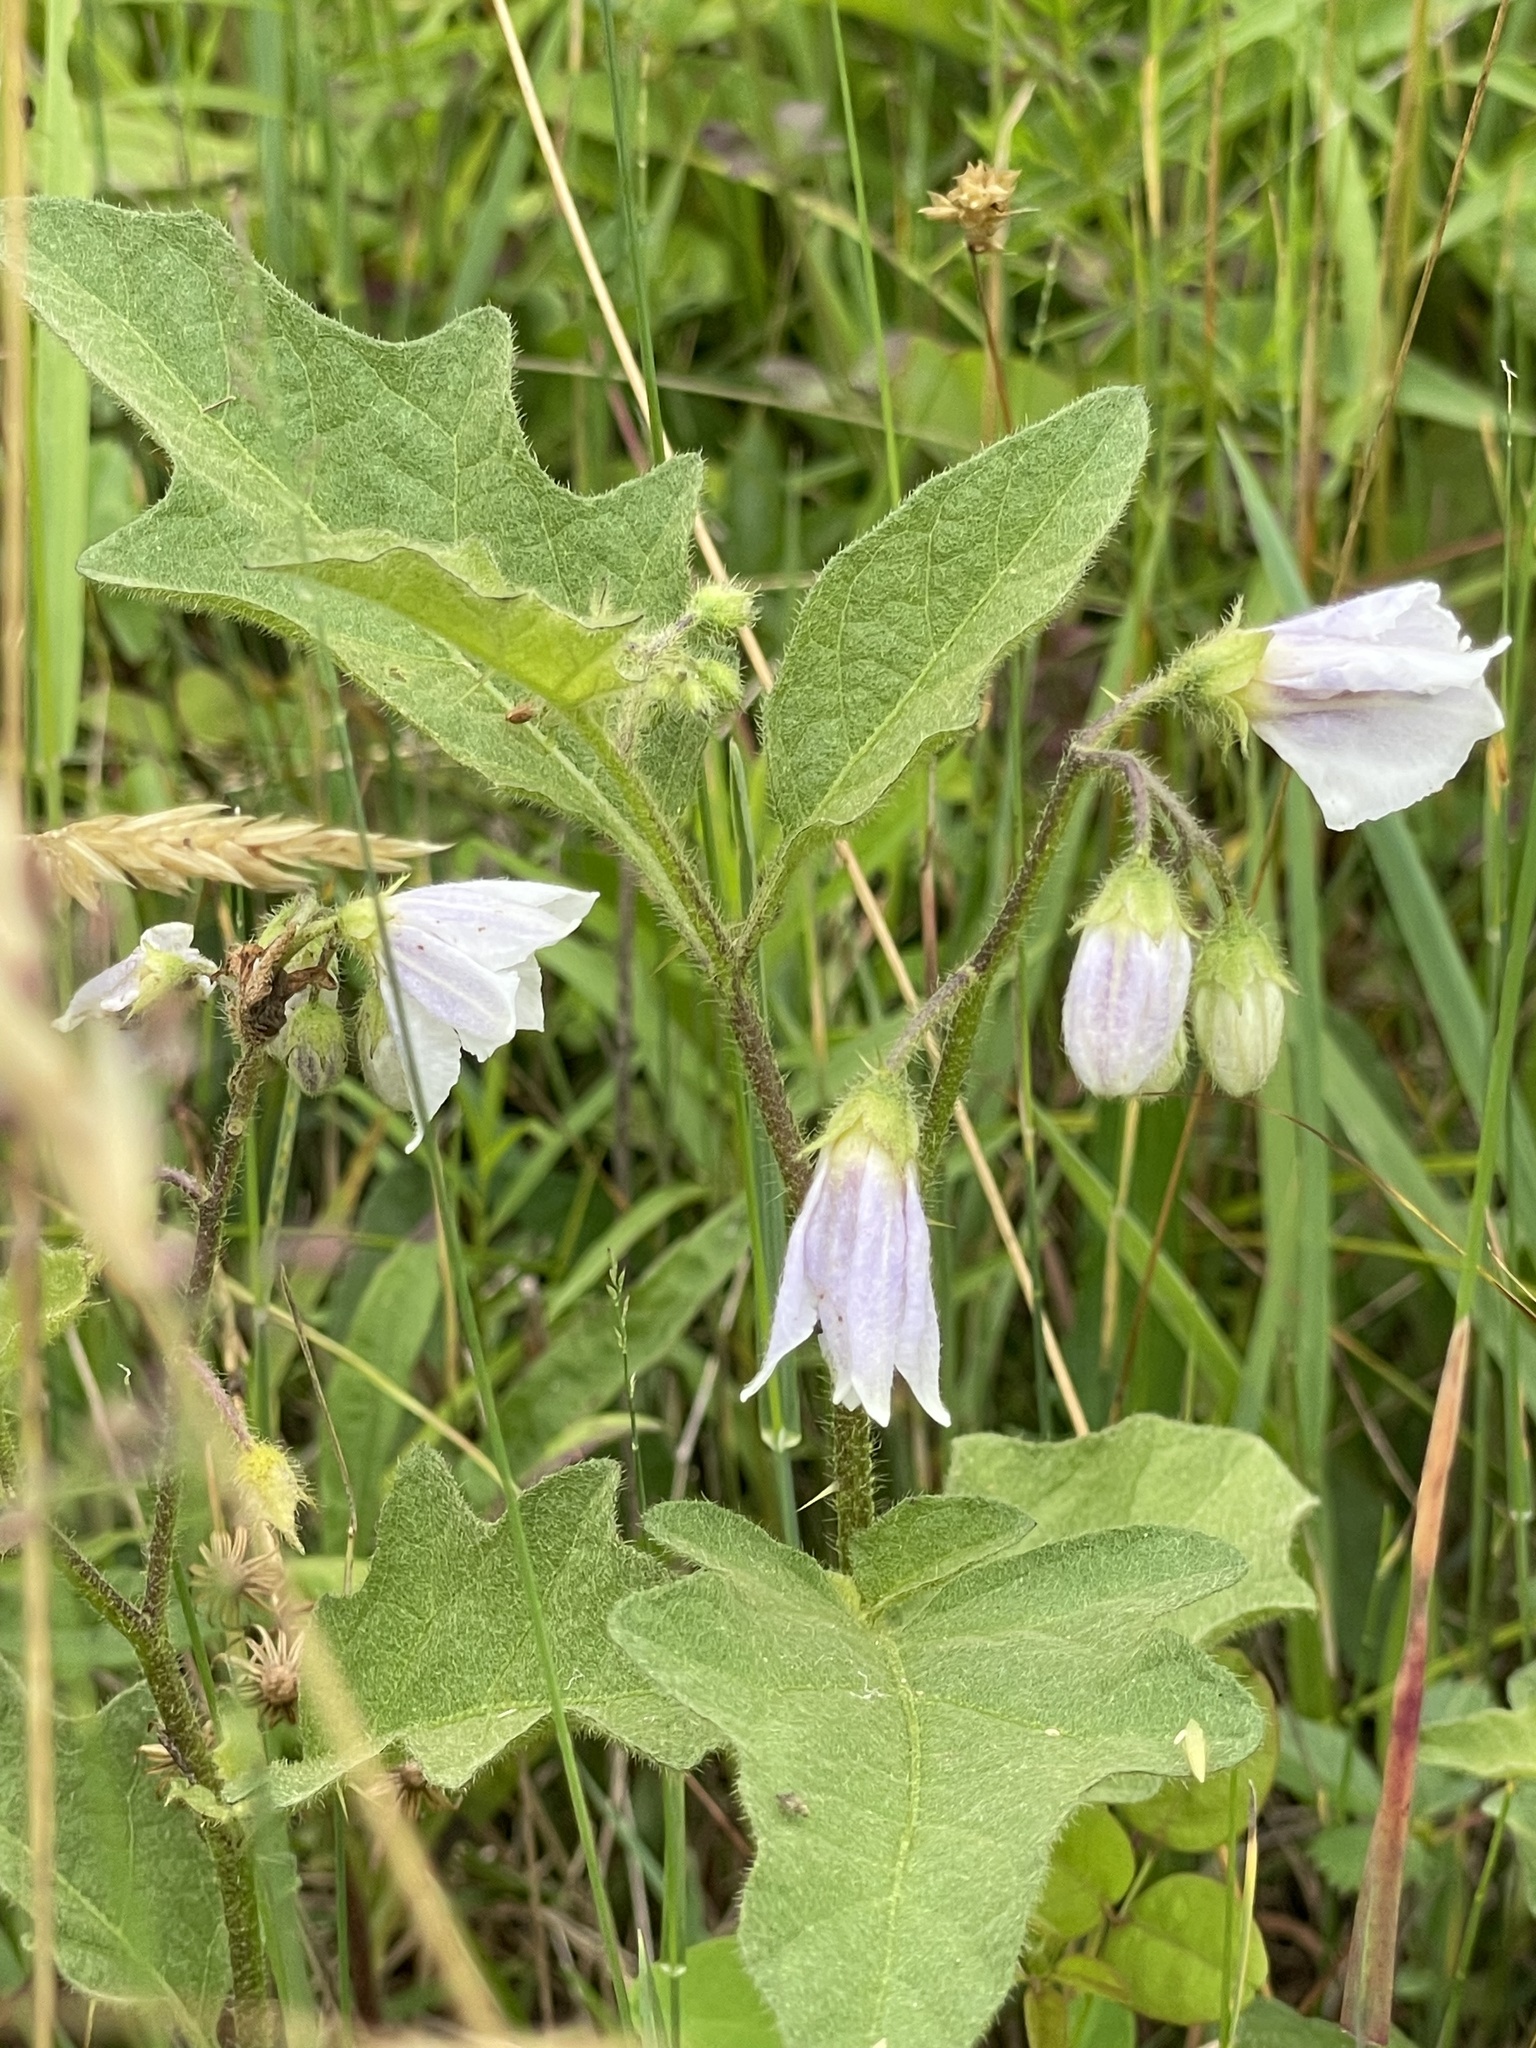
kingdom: Plantae
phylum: Tracheophyta
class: Magnoliopsida
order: Solanales
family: Solanaceae
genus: Solanum
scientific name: Solanum carolinense
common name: Horse-nettle
